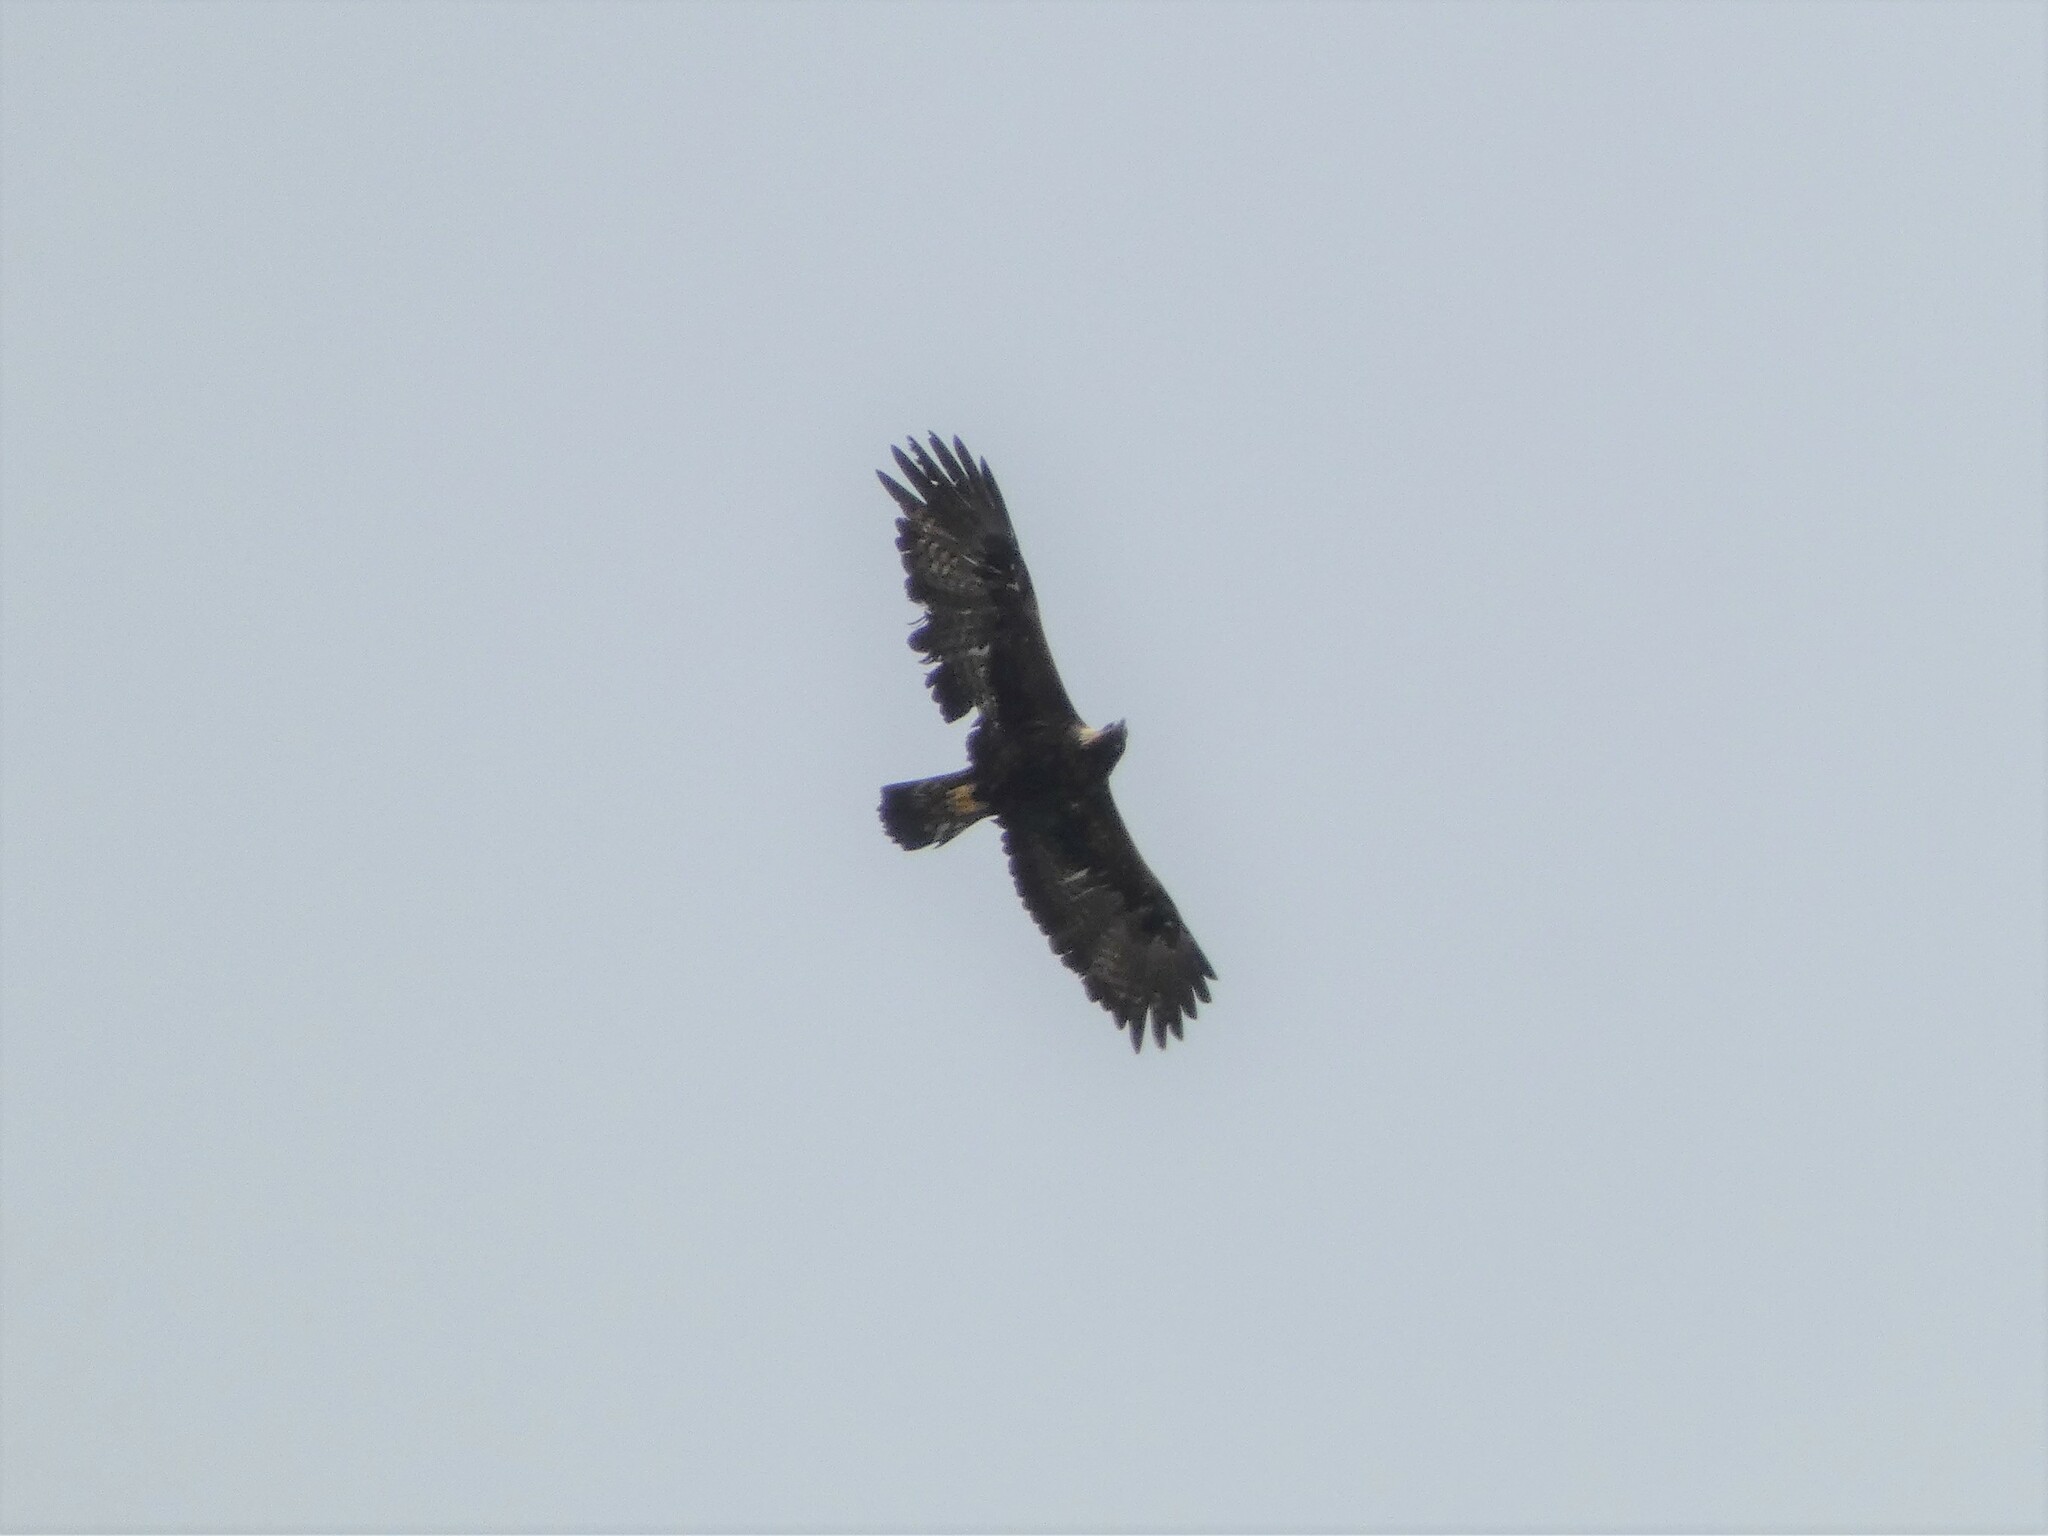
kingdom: Animalia
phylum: Chordata
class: Aves
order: Accipitriformes
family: Accipitridae
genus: Aquila
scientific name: Aquila chrysaetos
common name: Golden eagle
